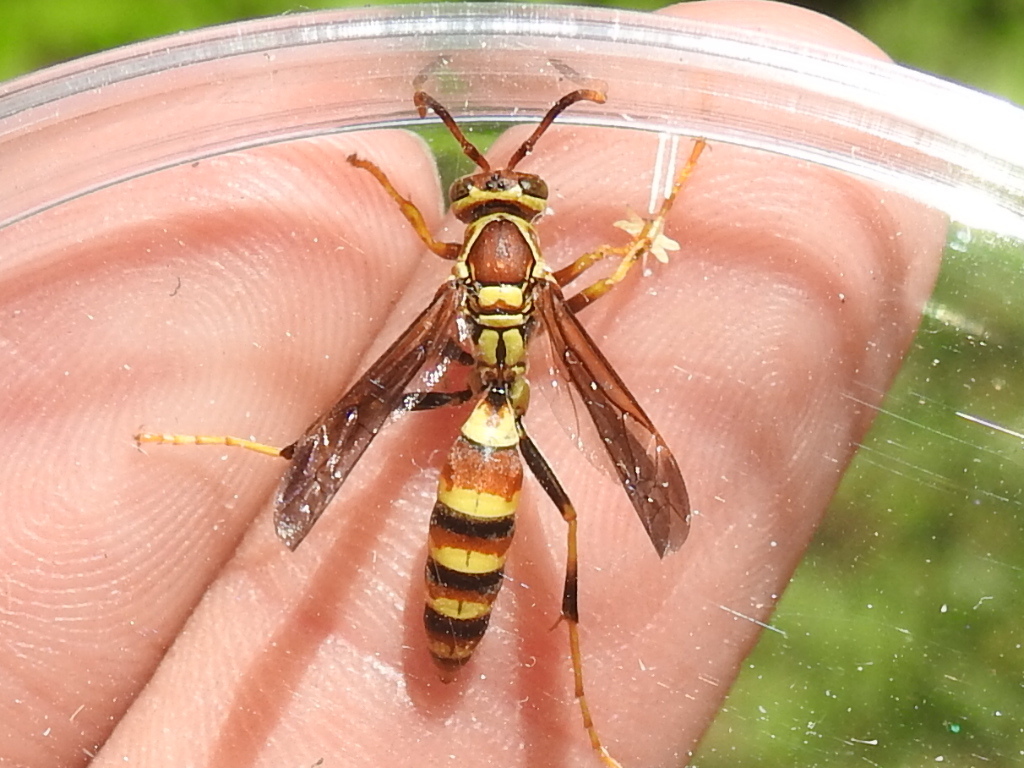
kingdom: Animalia
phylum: Arthropoda
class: Insecta
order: Hymenoptera
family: Eumenidae
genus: Polistes
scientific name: Polistes exclamans
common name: Paper wasp
